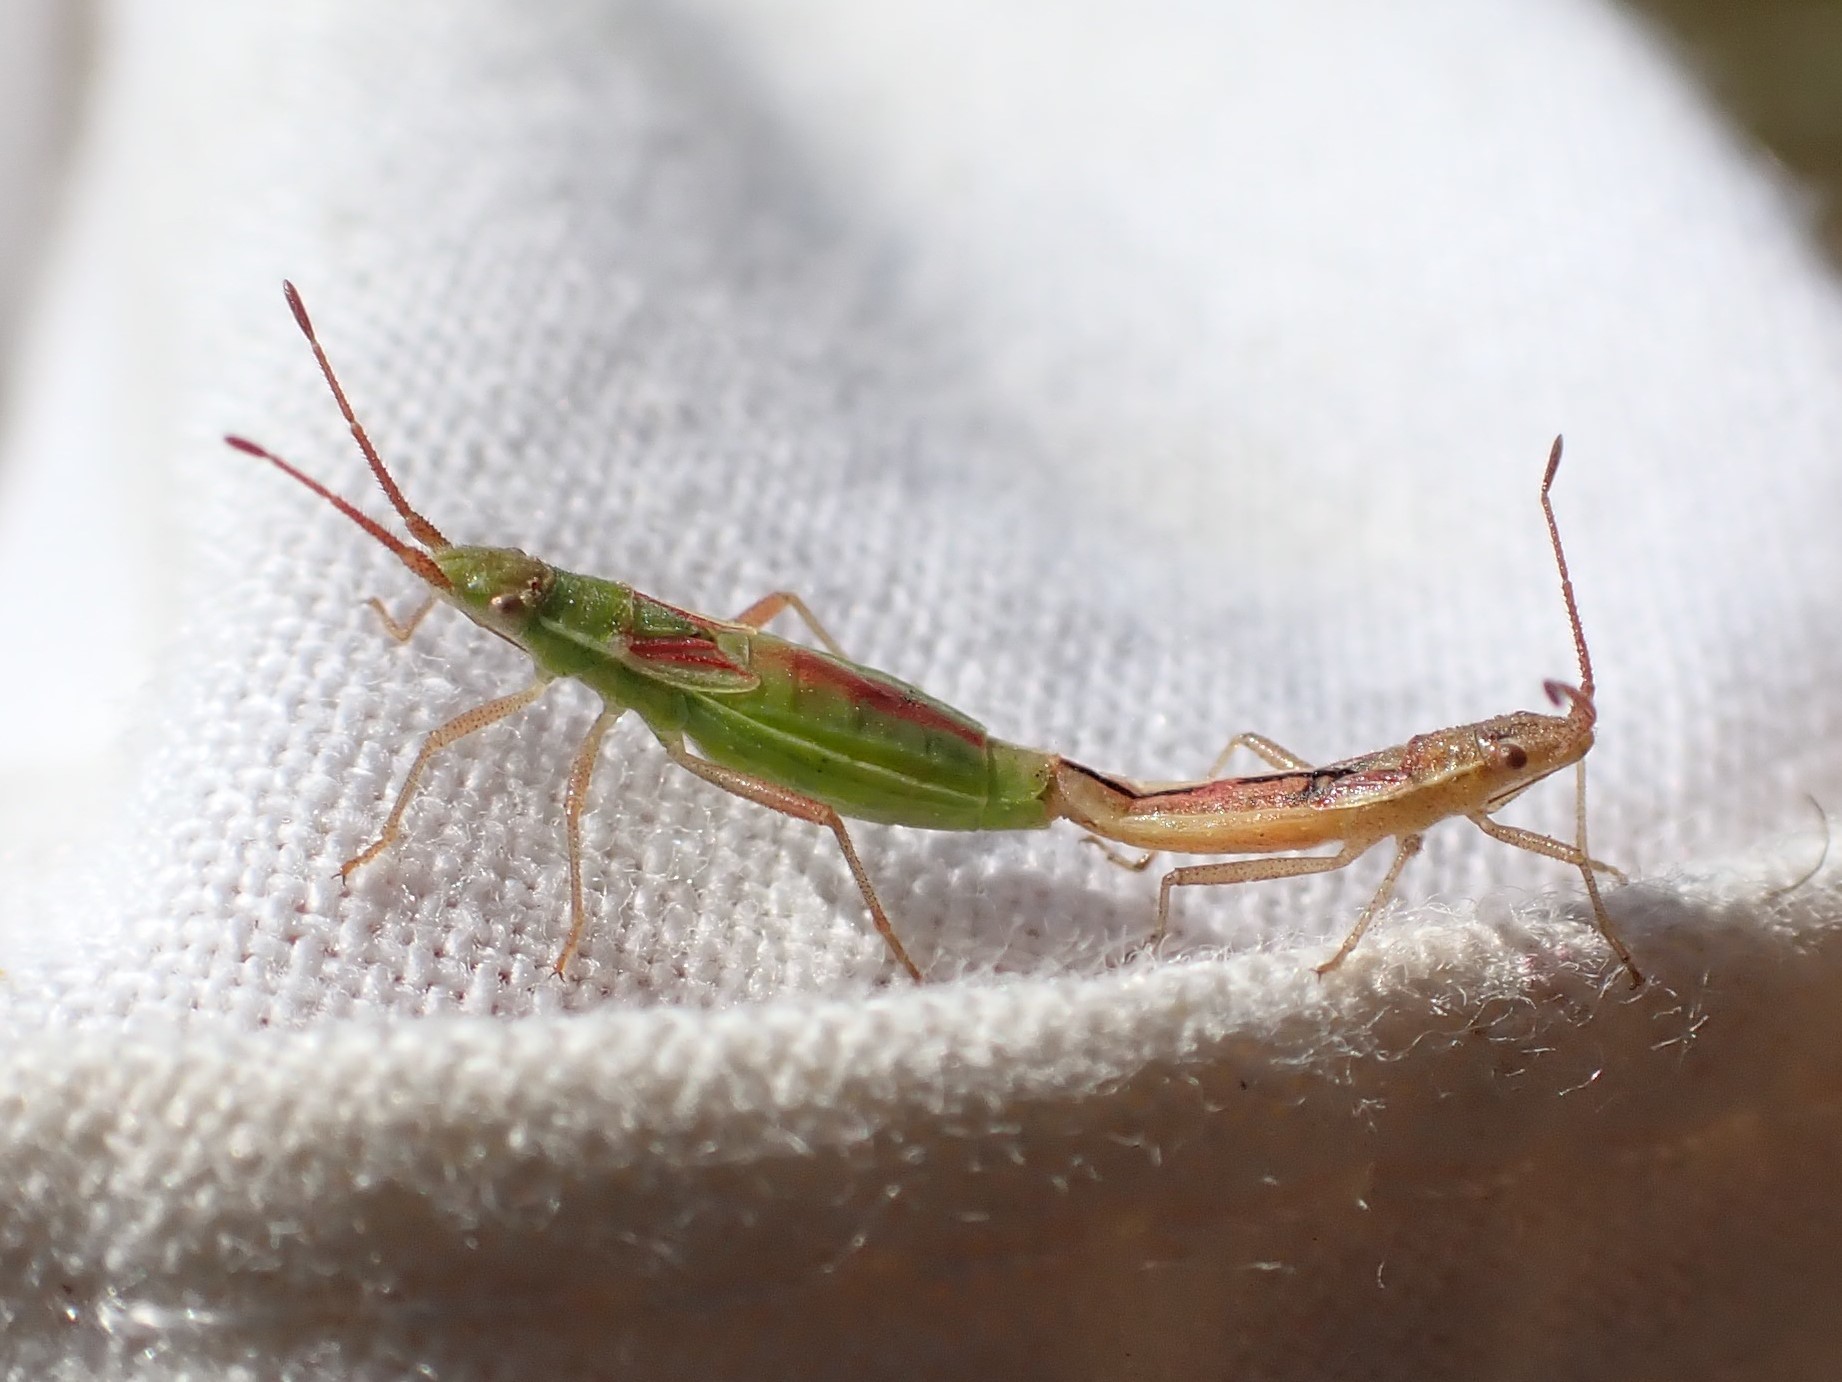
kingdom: Animalia
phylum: Arthropoda
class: Insecta
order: Hemiptera
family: Rhopalidae
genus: Myrmus
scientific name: Myrmus miriformis
